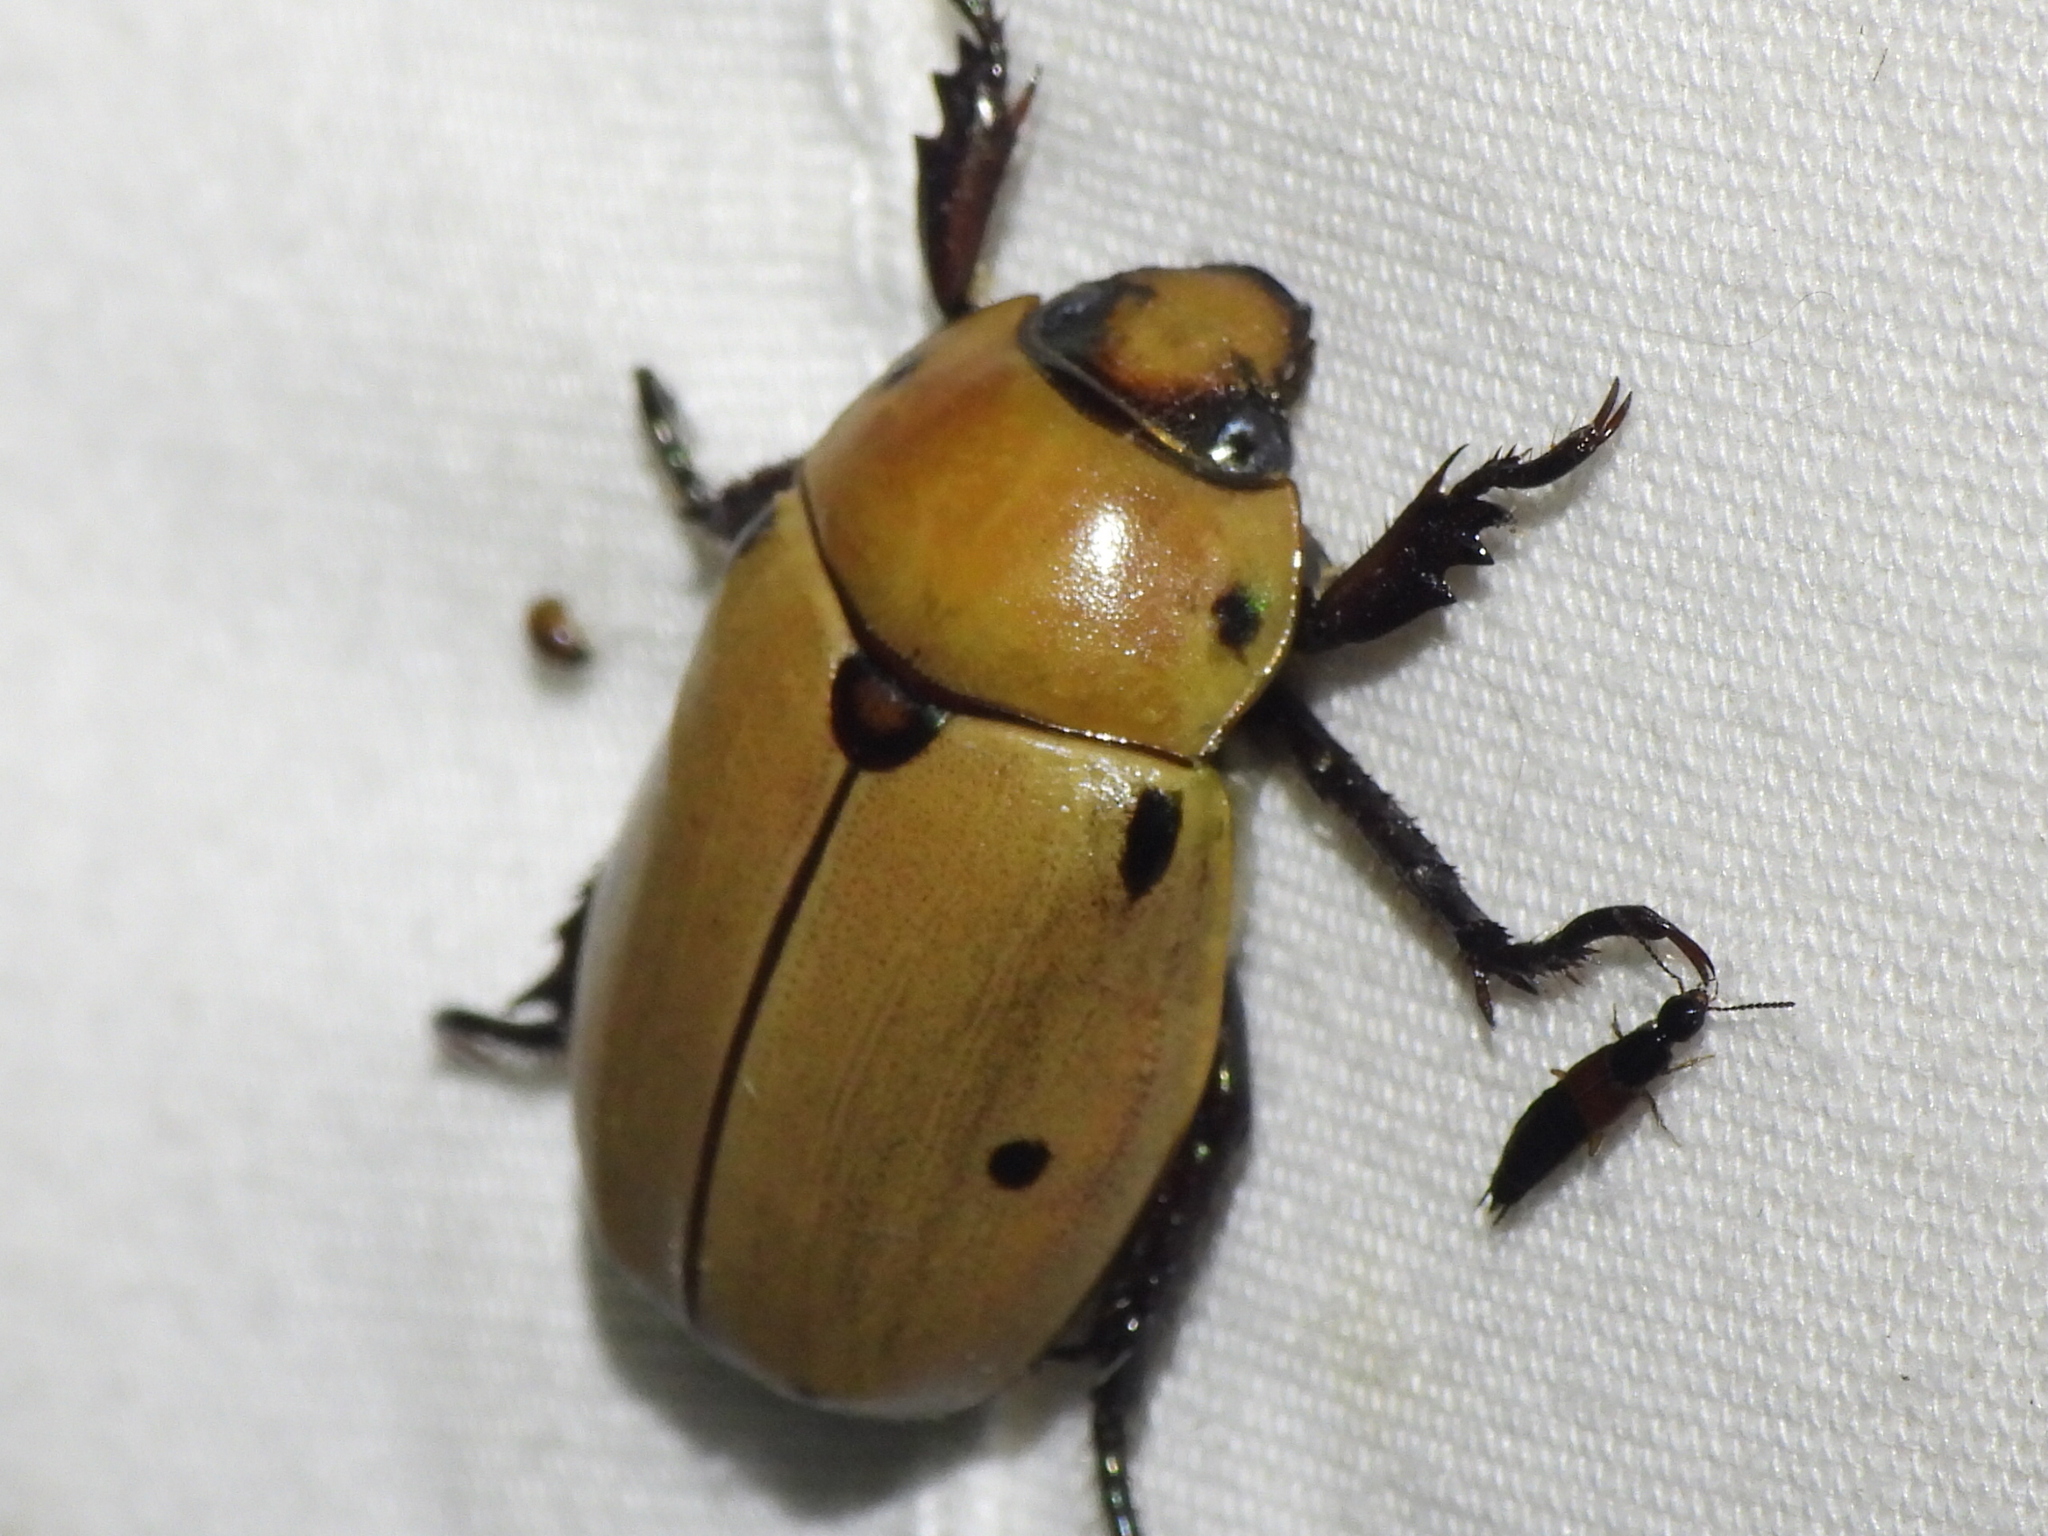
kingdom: Animalia
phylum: Arthropoda
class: Insecta
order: Coleoptera
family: Scarabaeidae
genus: Pelidnota
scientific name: Pelidnota punctata
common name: Grapevine beetle
